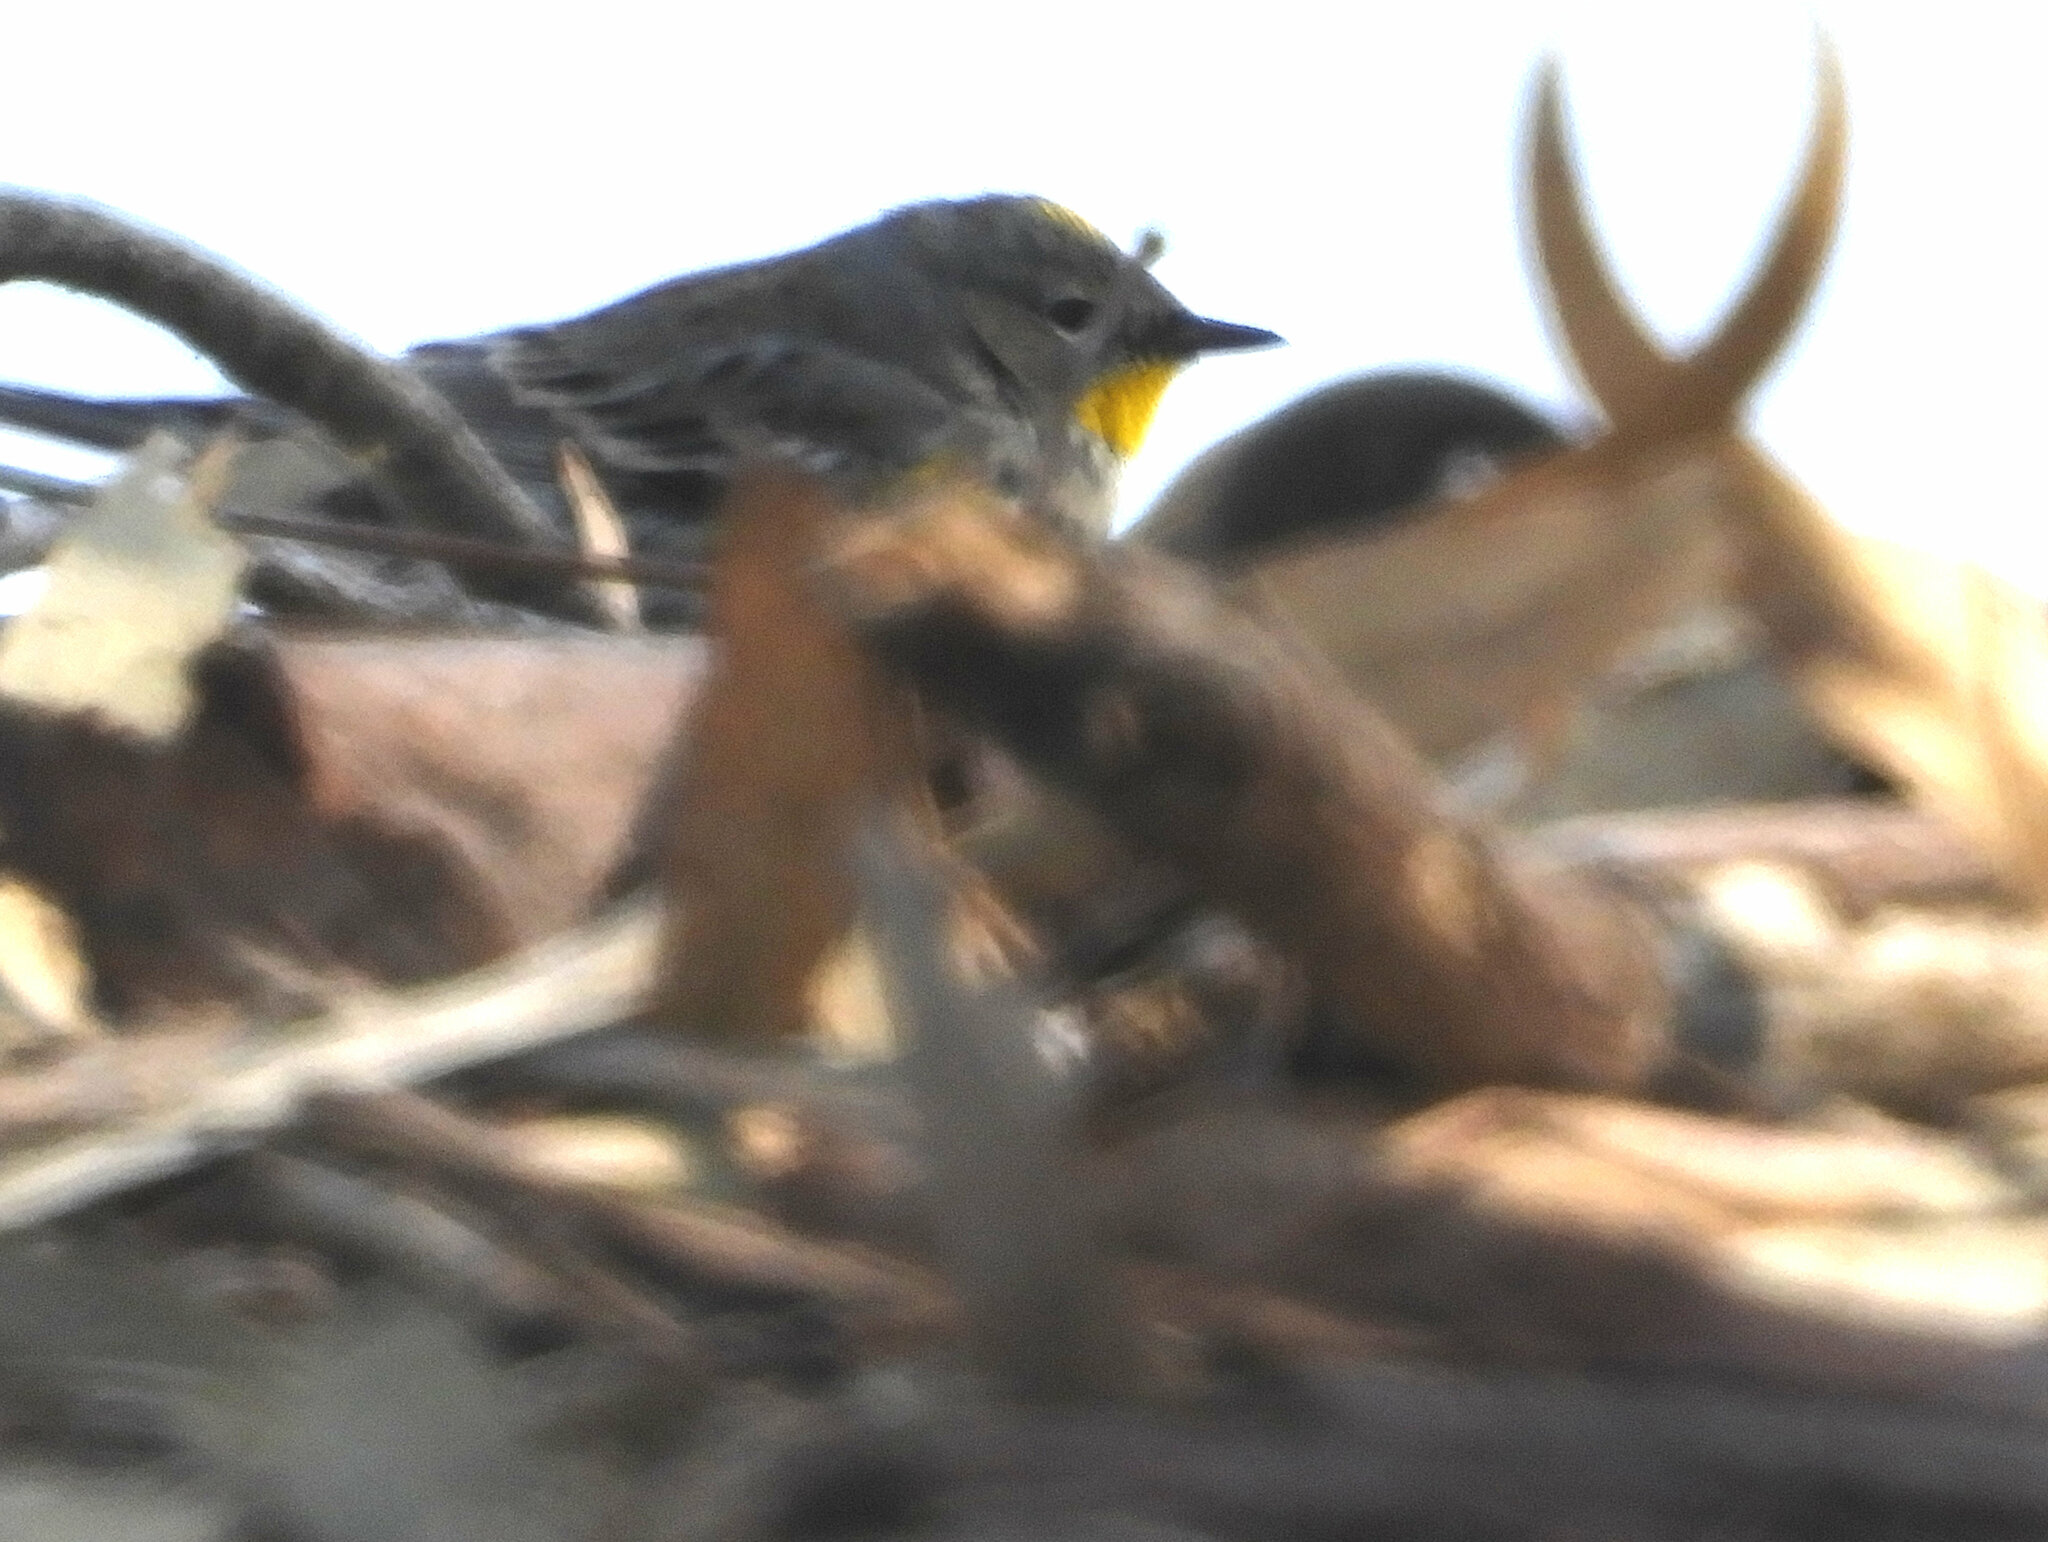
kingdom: Animalia
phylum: Chordata
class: Aves
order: Passeriformes
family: Parulidae
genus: Setophaga
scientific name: Setophaga auduboni
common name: Audubon's warbler
